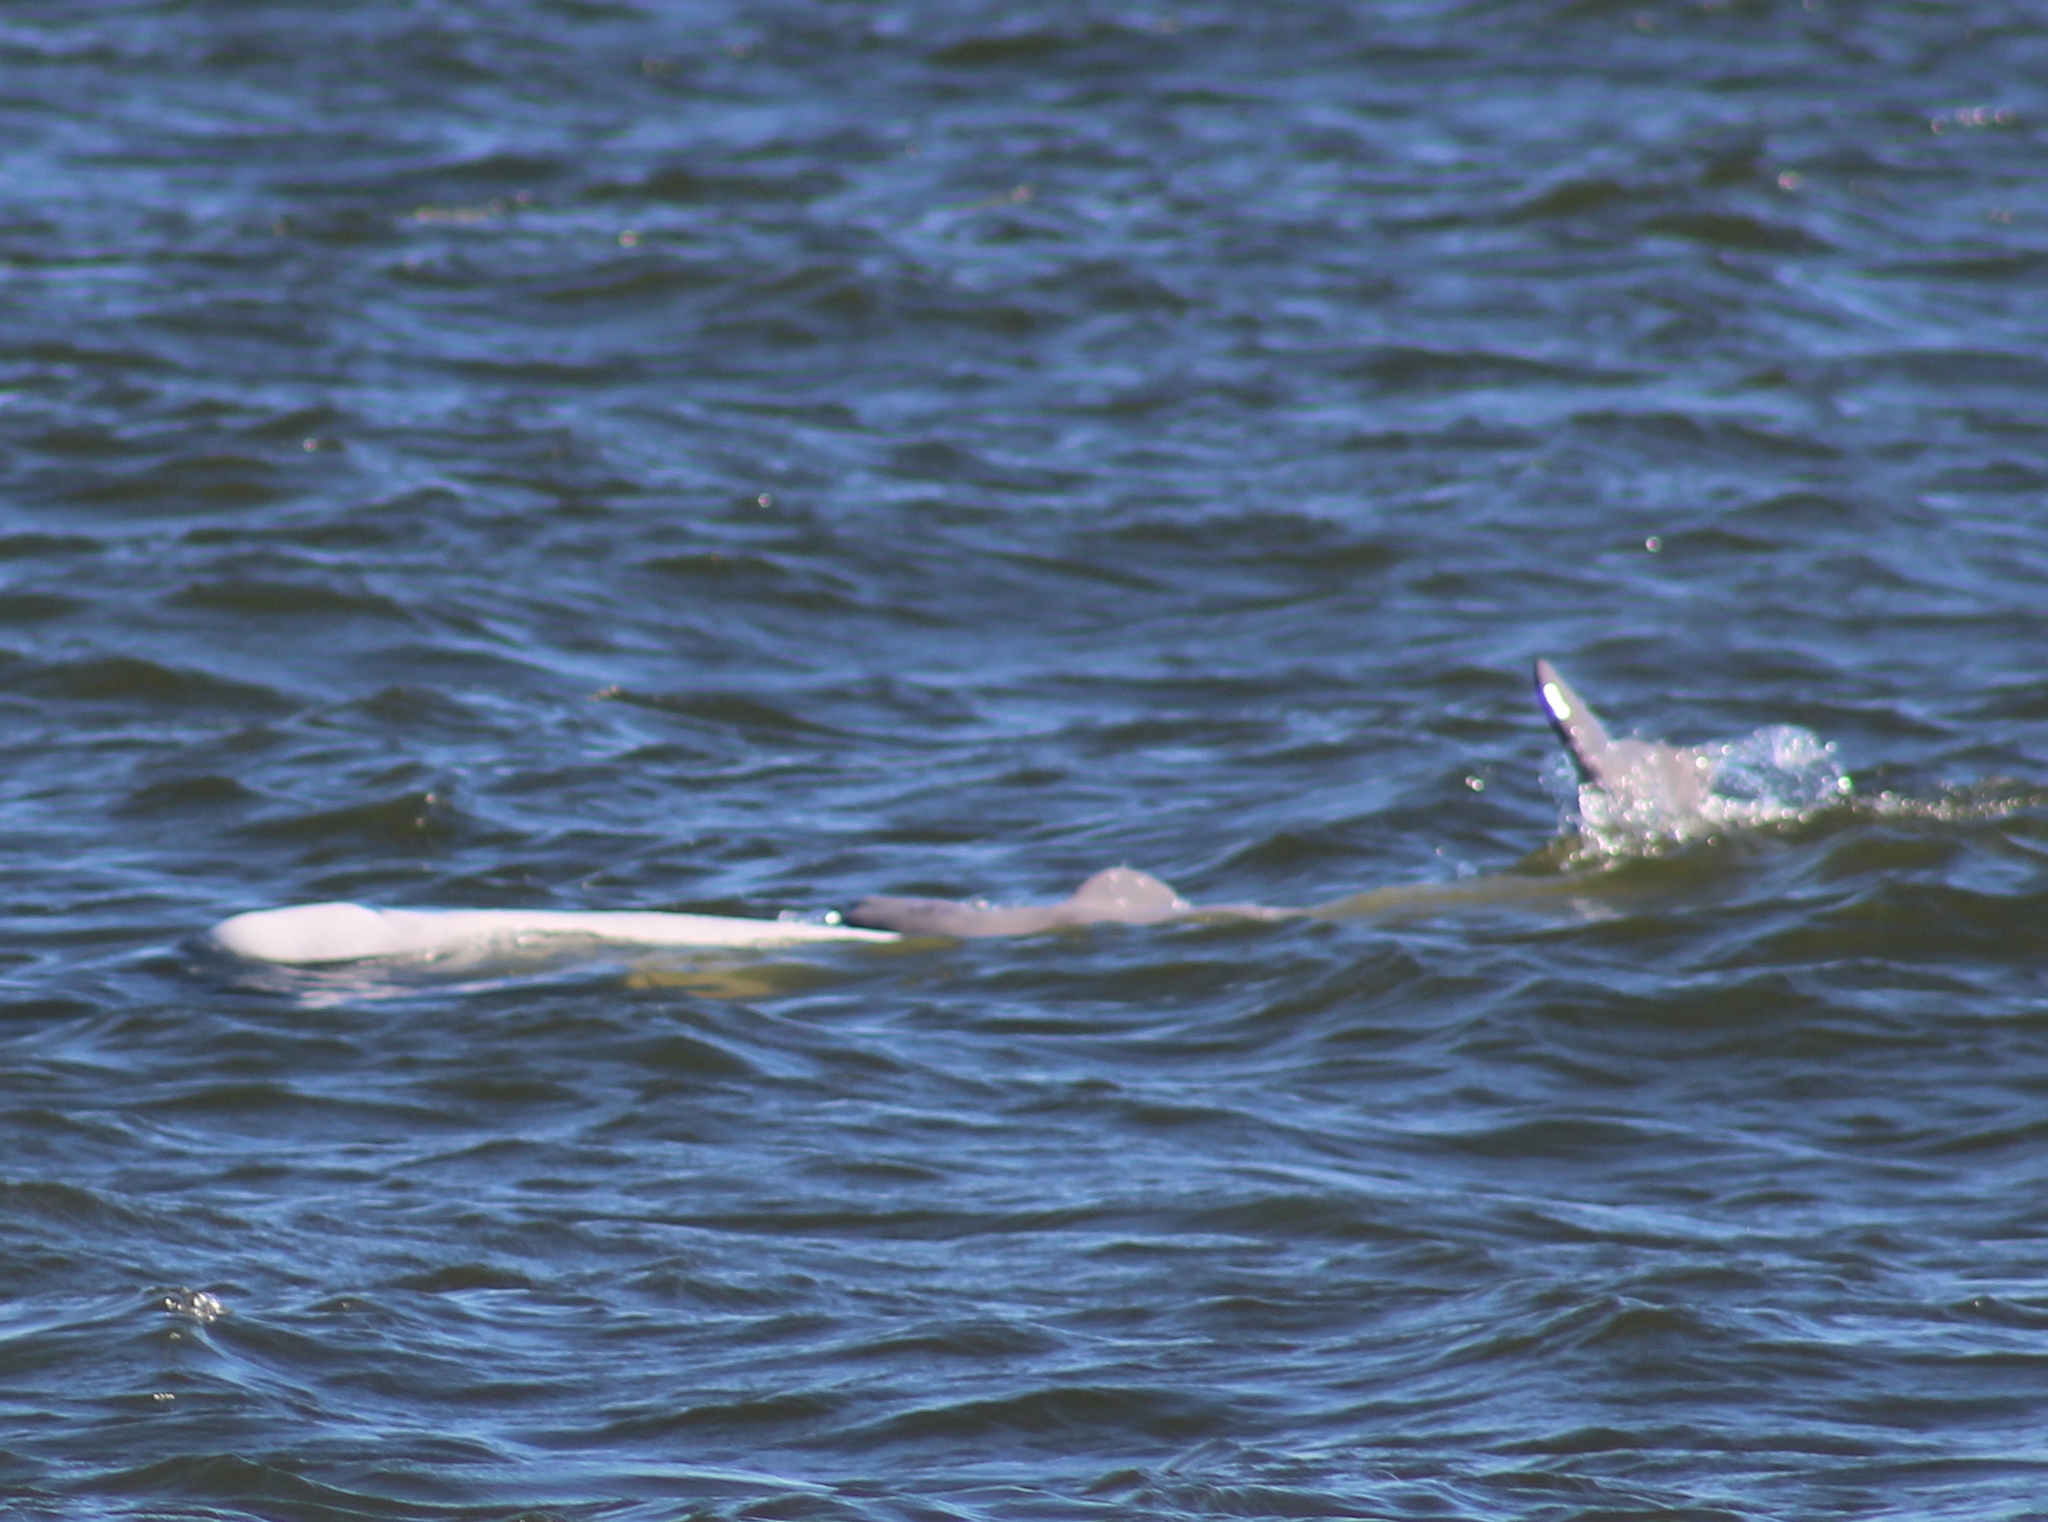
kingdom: Animalia
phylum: Chordata
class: Mammalia
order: Cetacea
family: Monodontidae
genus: Delphinapterus
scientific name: Delphinapterus leucas
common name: Beluga
